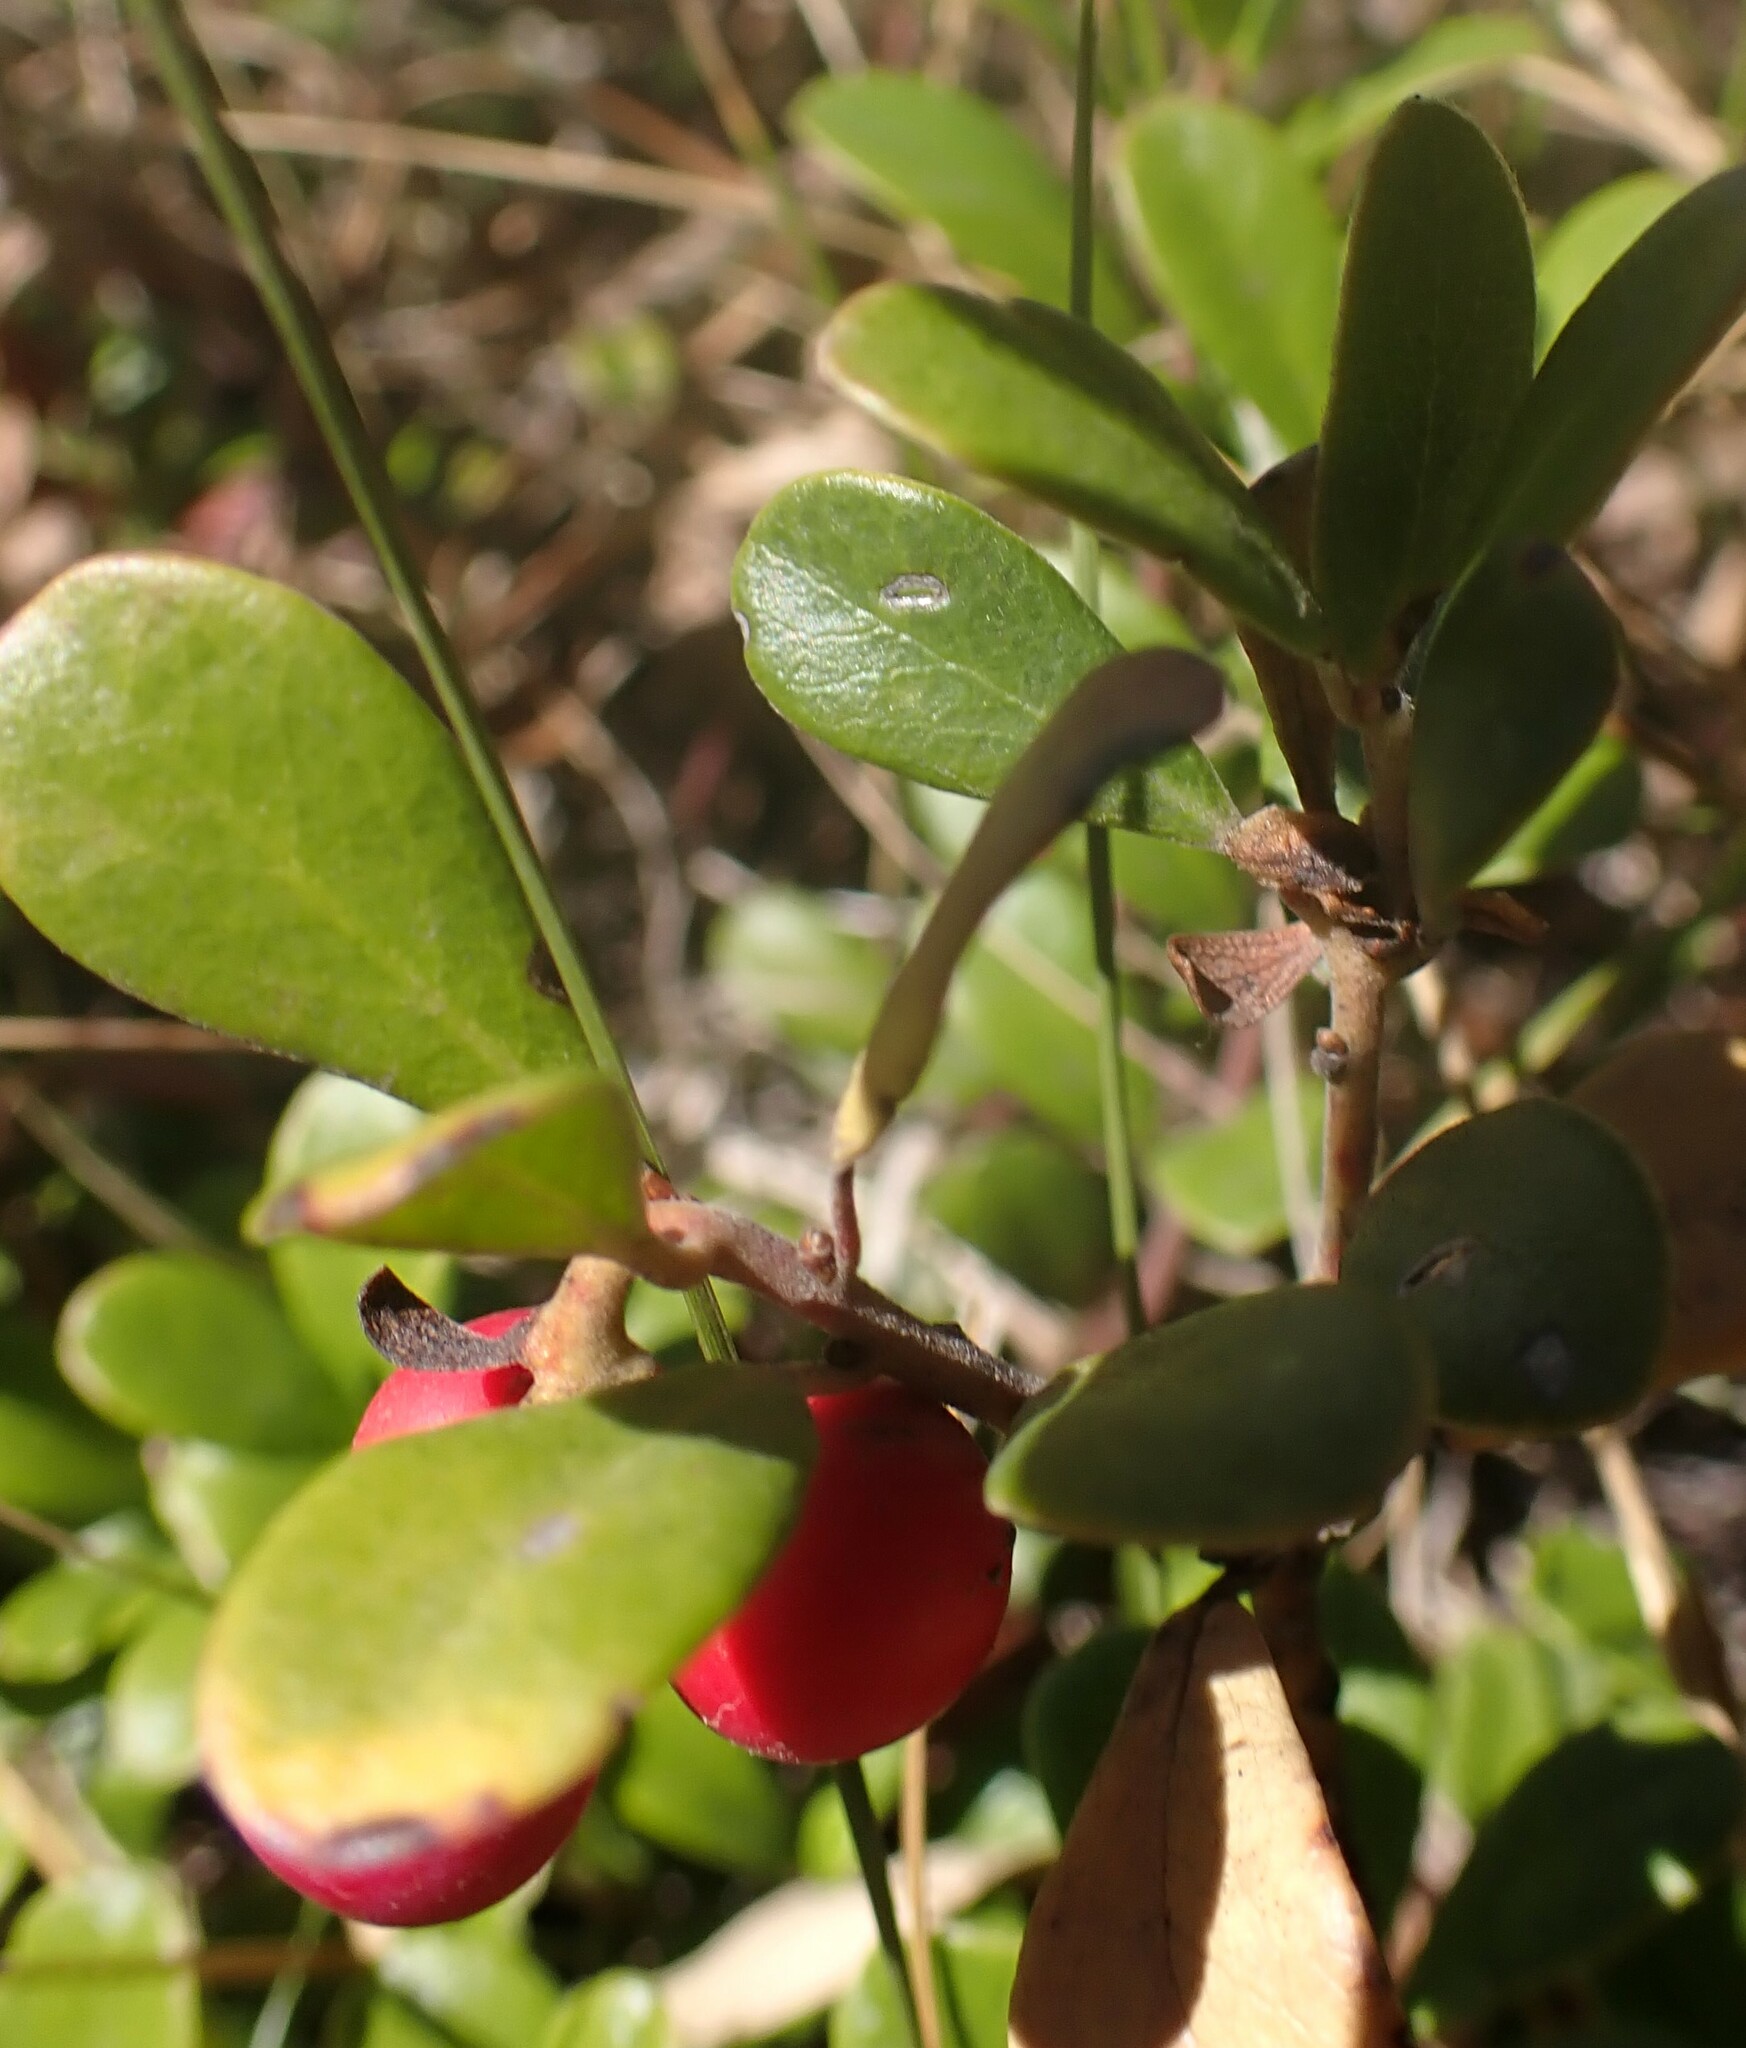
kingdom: Plantae
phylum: Tracheophyta
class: Magnoliopsida
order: Ericales
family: Ericaceae
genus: Arctostaphylos
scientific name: Arctostaphylos uva-ursi
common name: Bearberry
